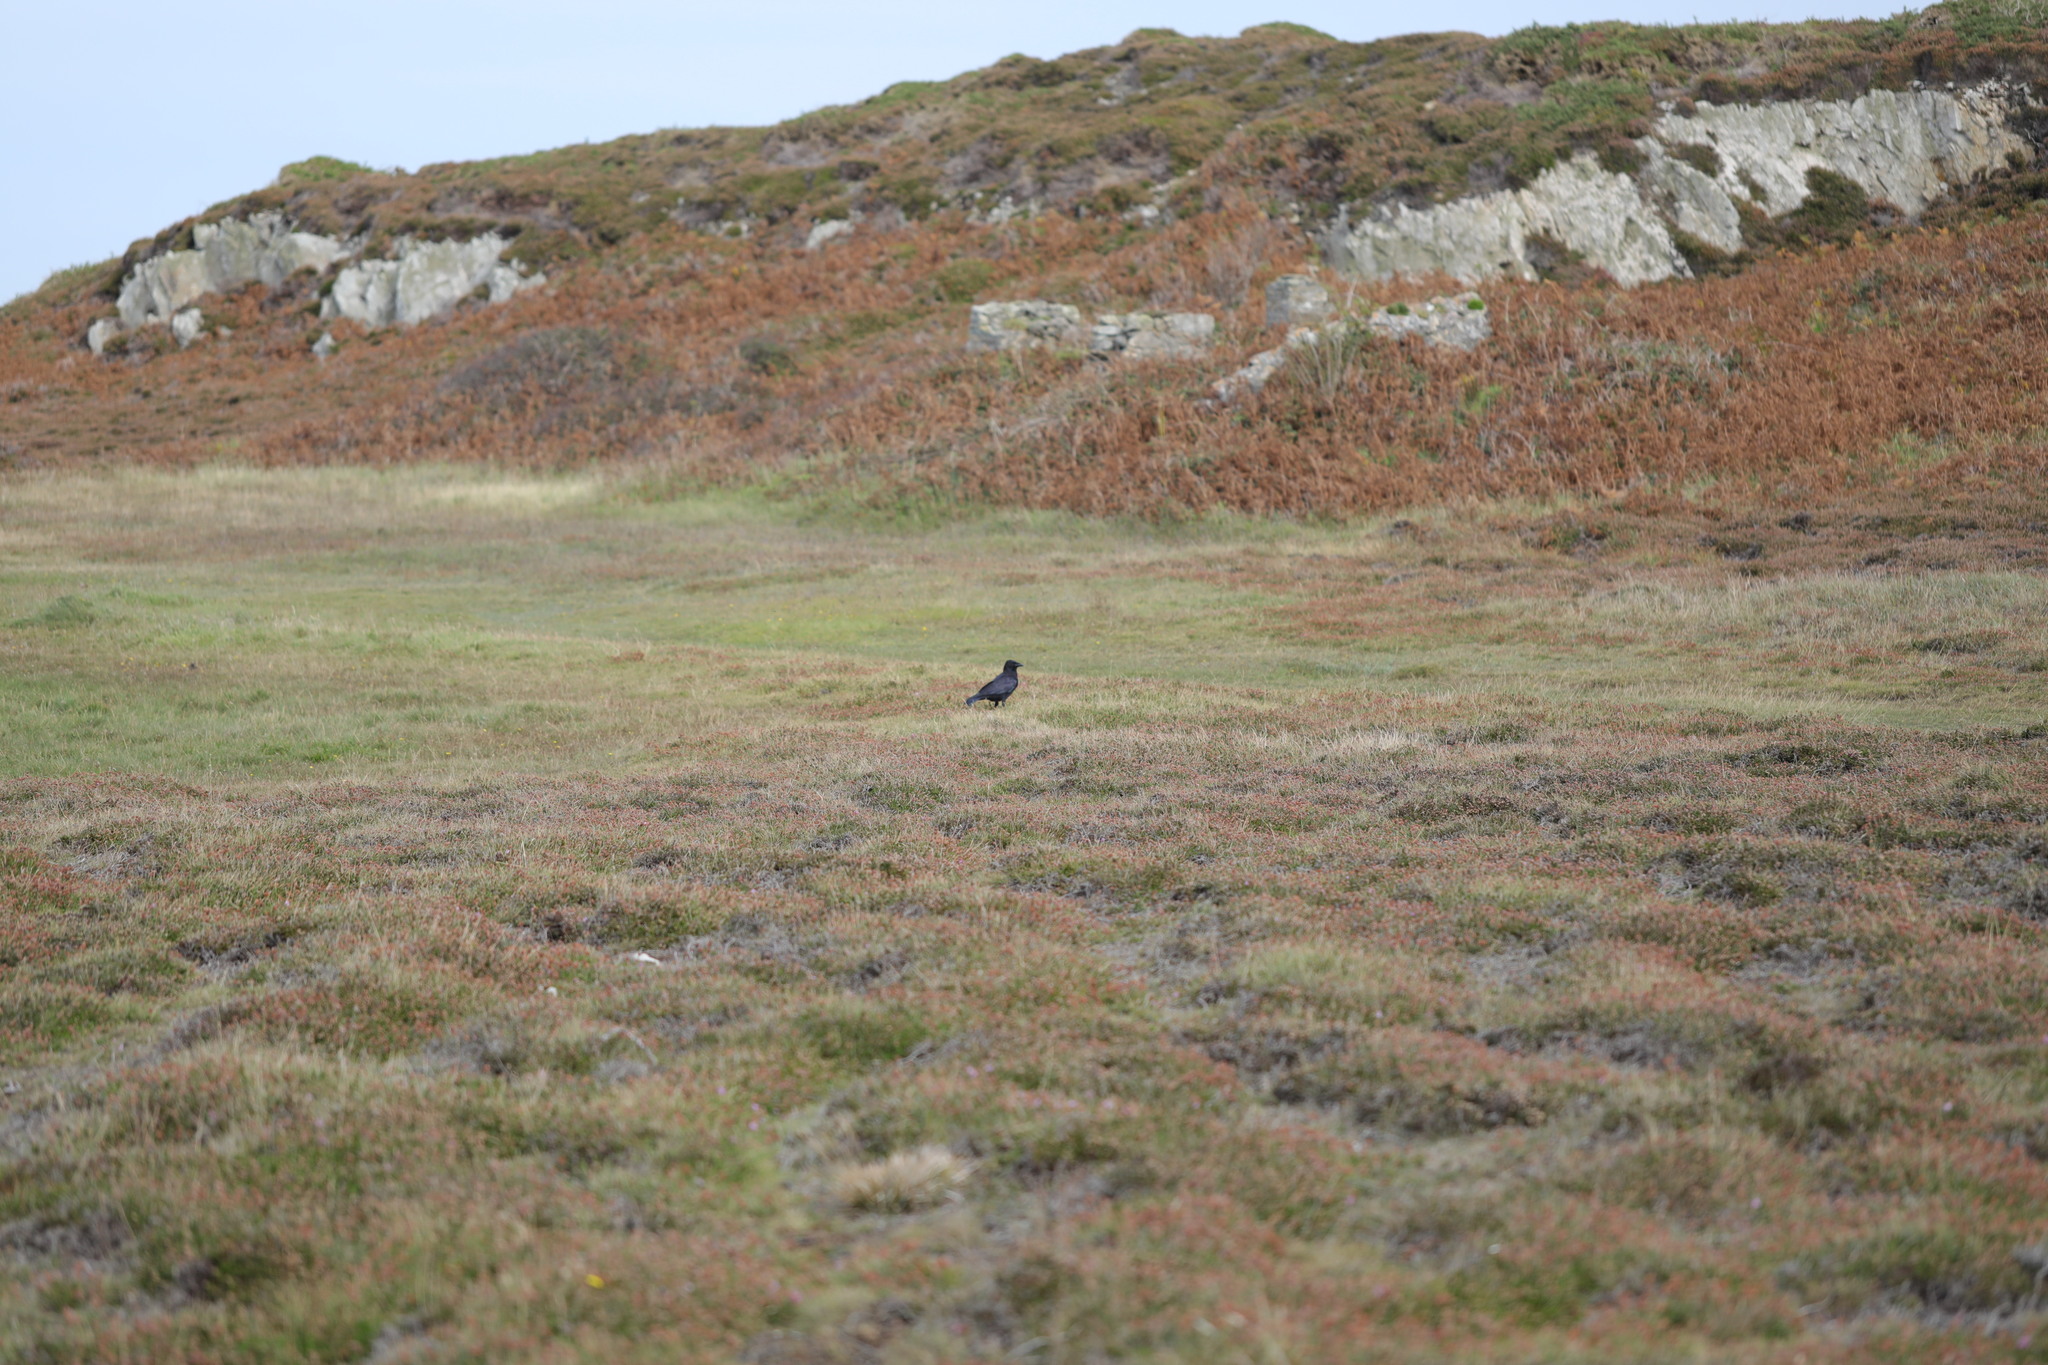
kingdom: Animalia
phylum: Chordata
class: Aves
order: Passeriformes
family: Corvidae
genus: Corvus
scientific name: Corvus corone
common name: Carrion crow
